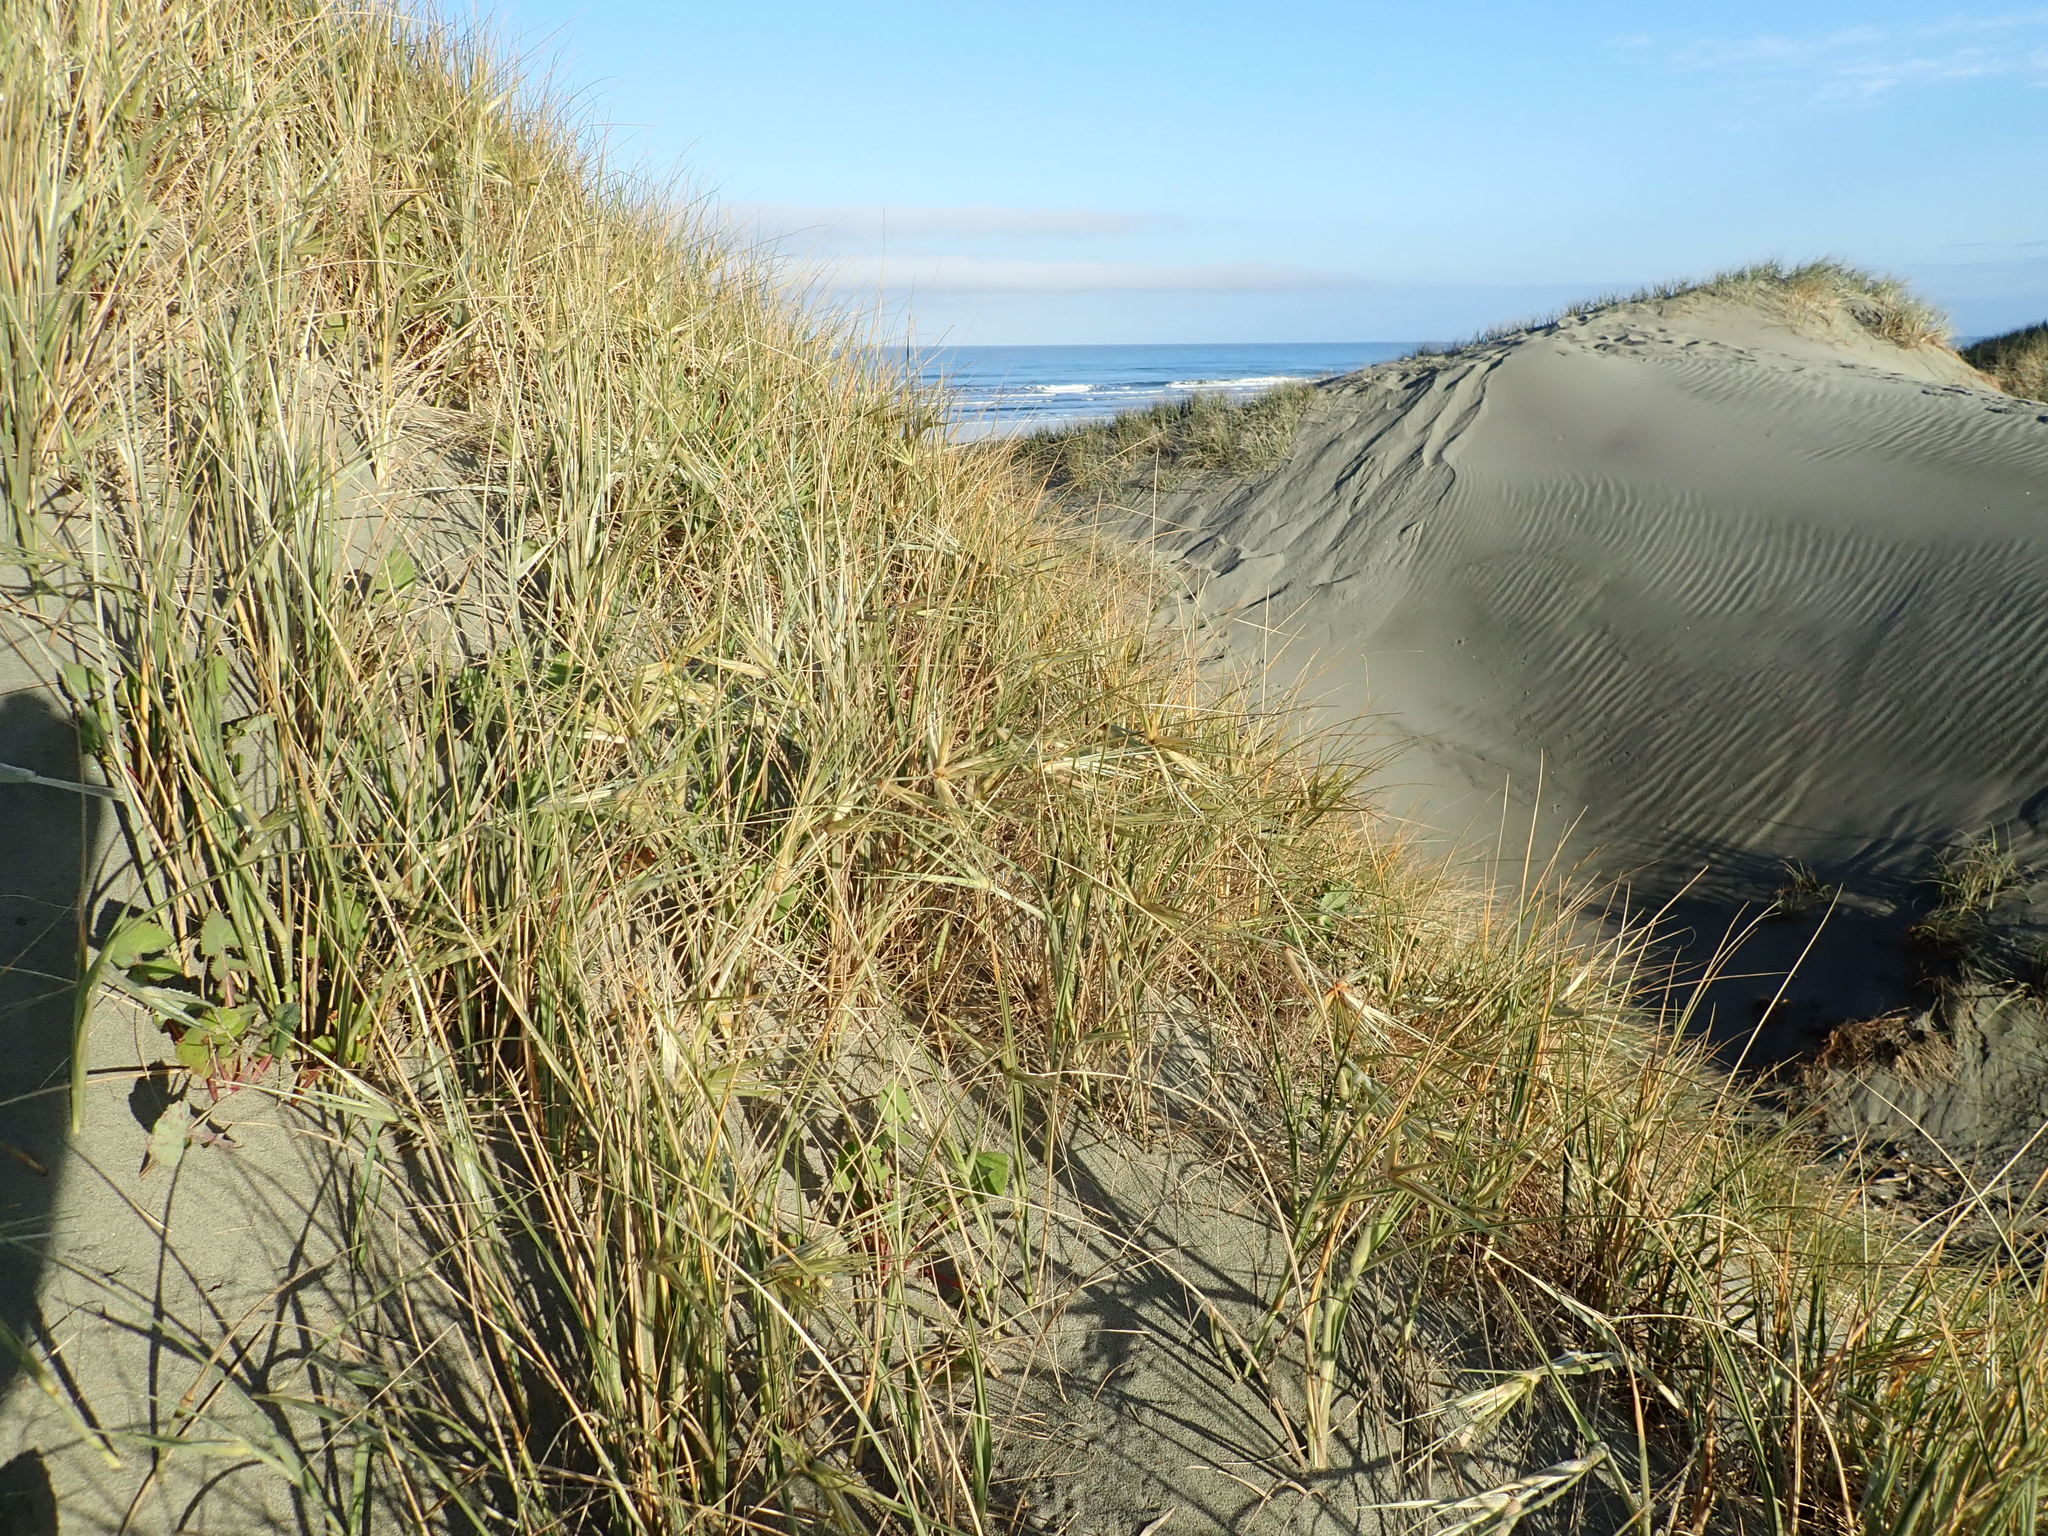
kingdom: Plantae
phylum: Tracheophyta
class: Liliopsida
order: Poales
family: Poaceae
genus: Spinifex
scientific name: Spinifex sericeus
